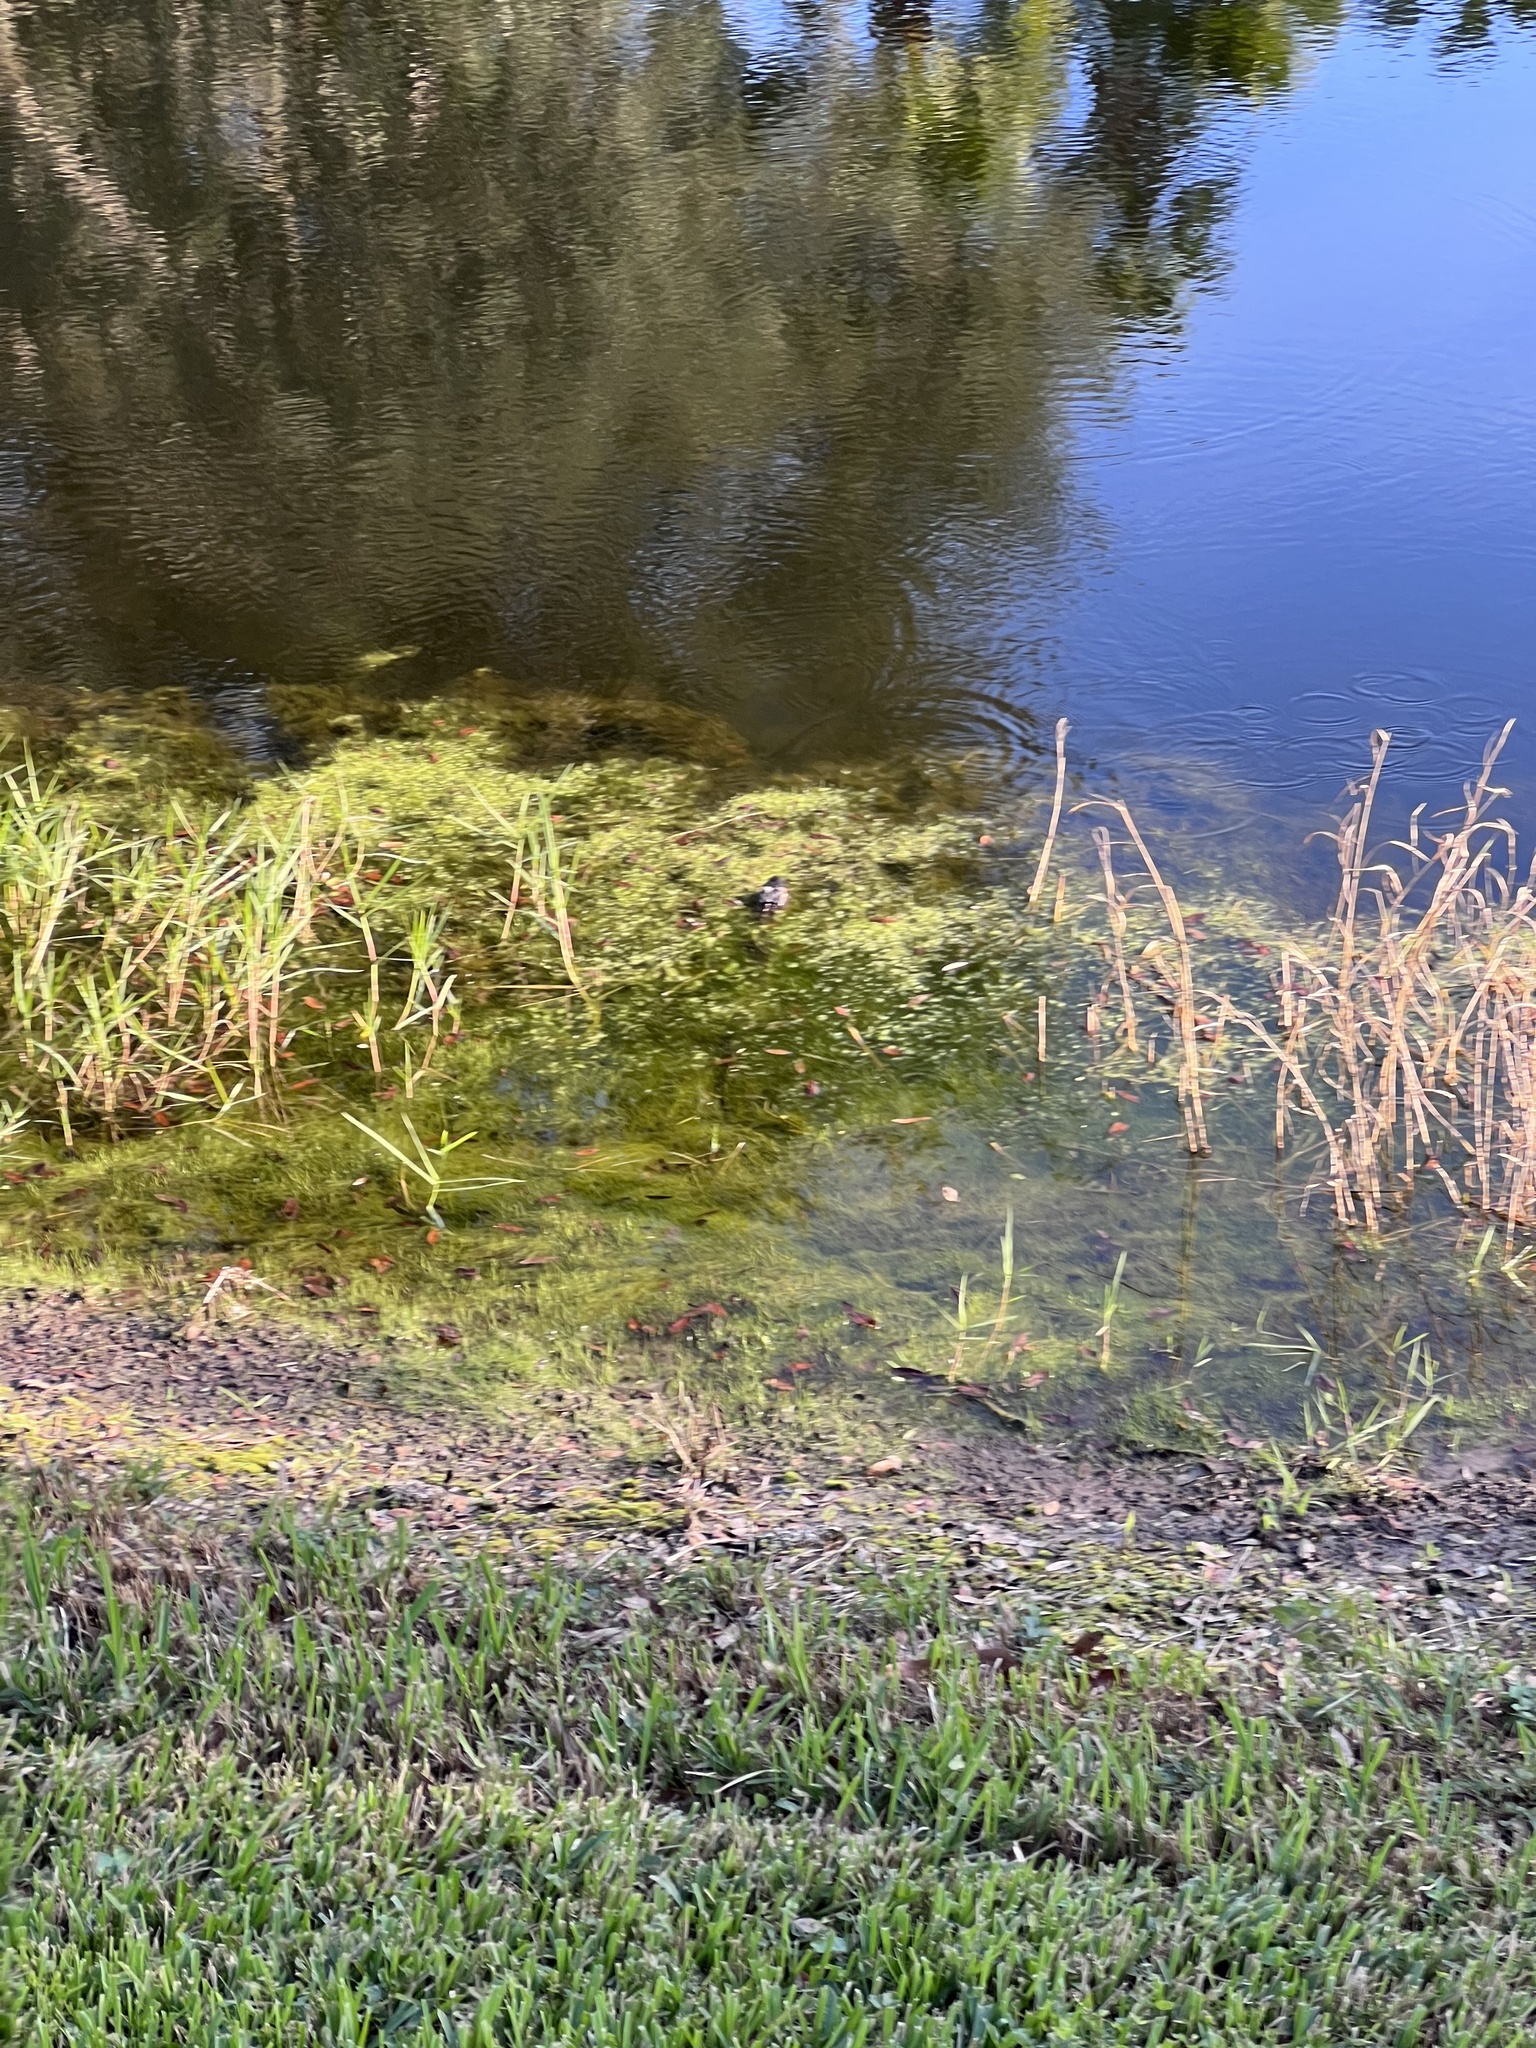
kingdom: Animalia
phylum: Chordata
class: Crocodylia
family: Alligatoridae
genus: Alligator
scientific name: Alligator mississippiensis
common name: American alligator
